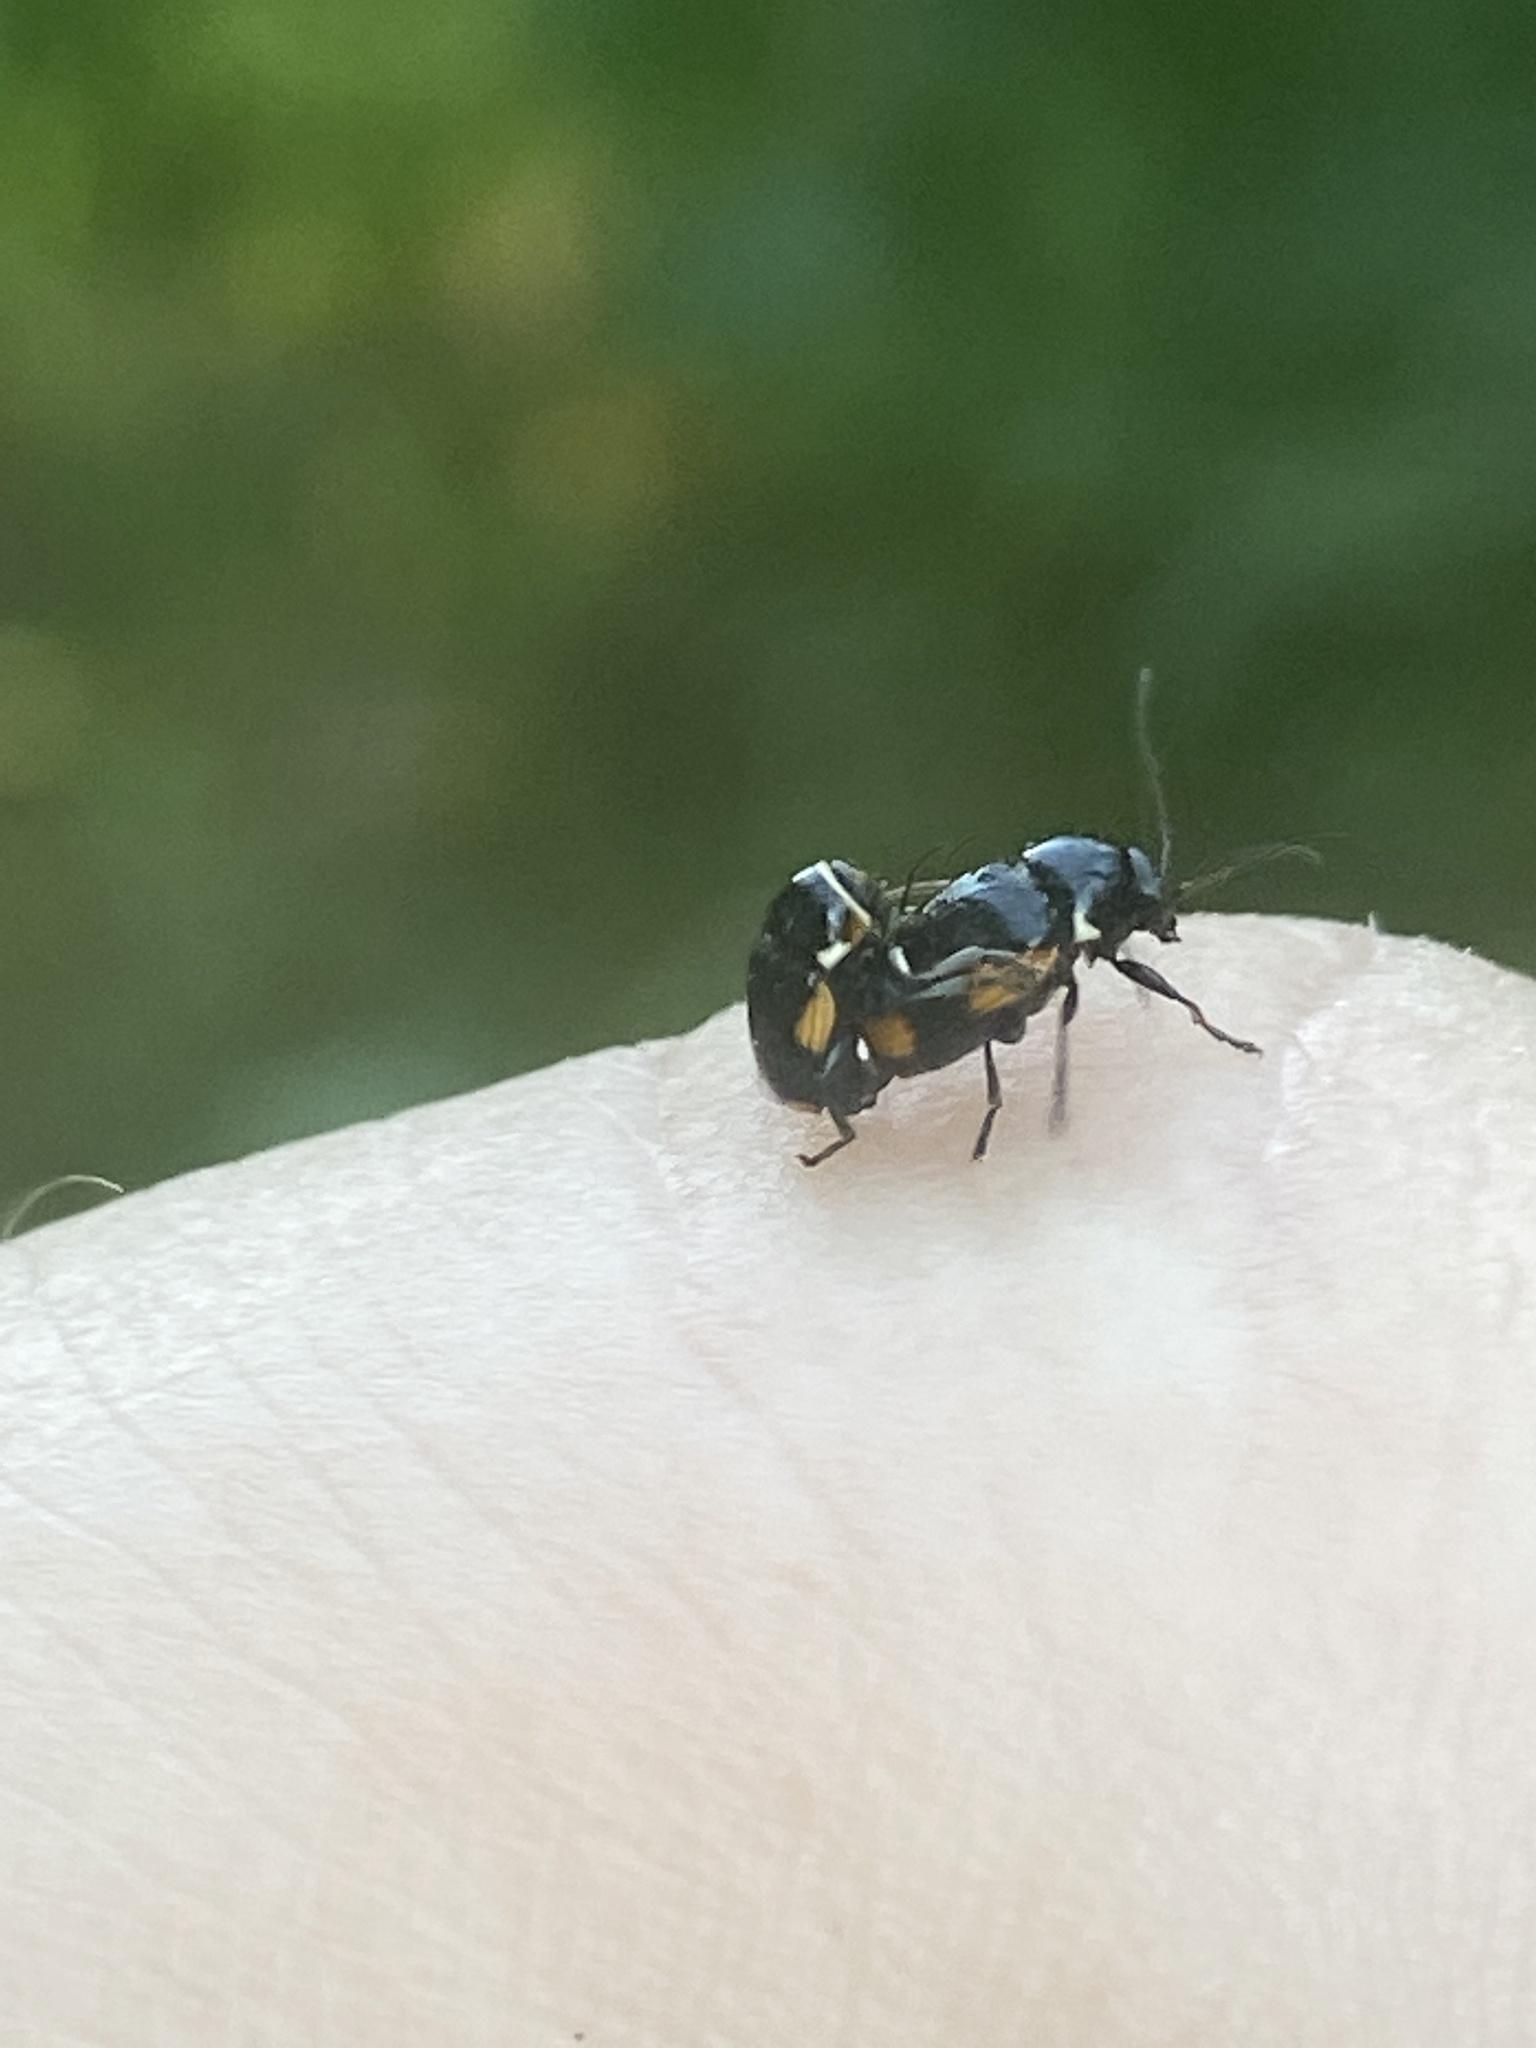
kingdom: Animalia
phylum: Arthropoda
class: Insecta
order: Coleoptera
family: Chrysomelidae
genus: Cryptocephalus
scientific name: Cryptocephalus moraei
